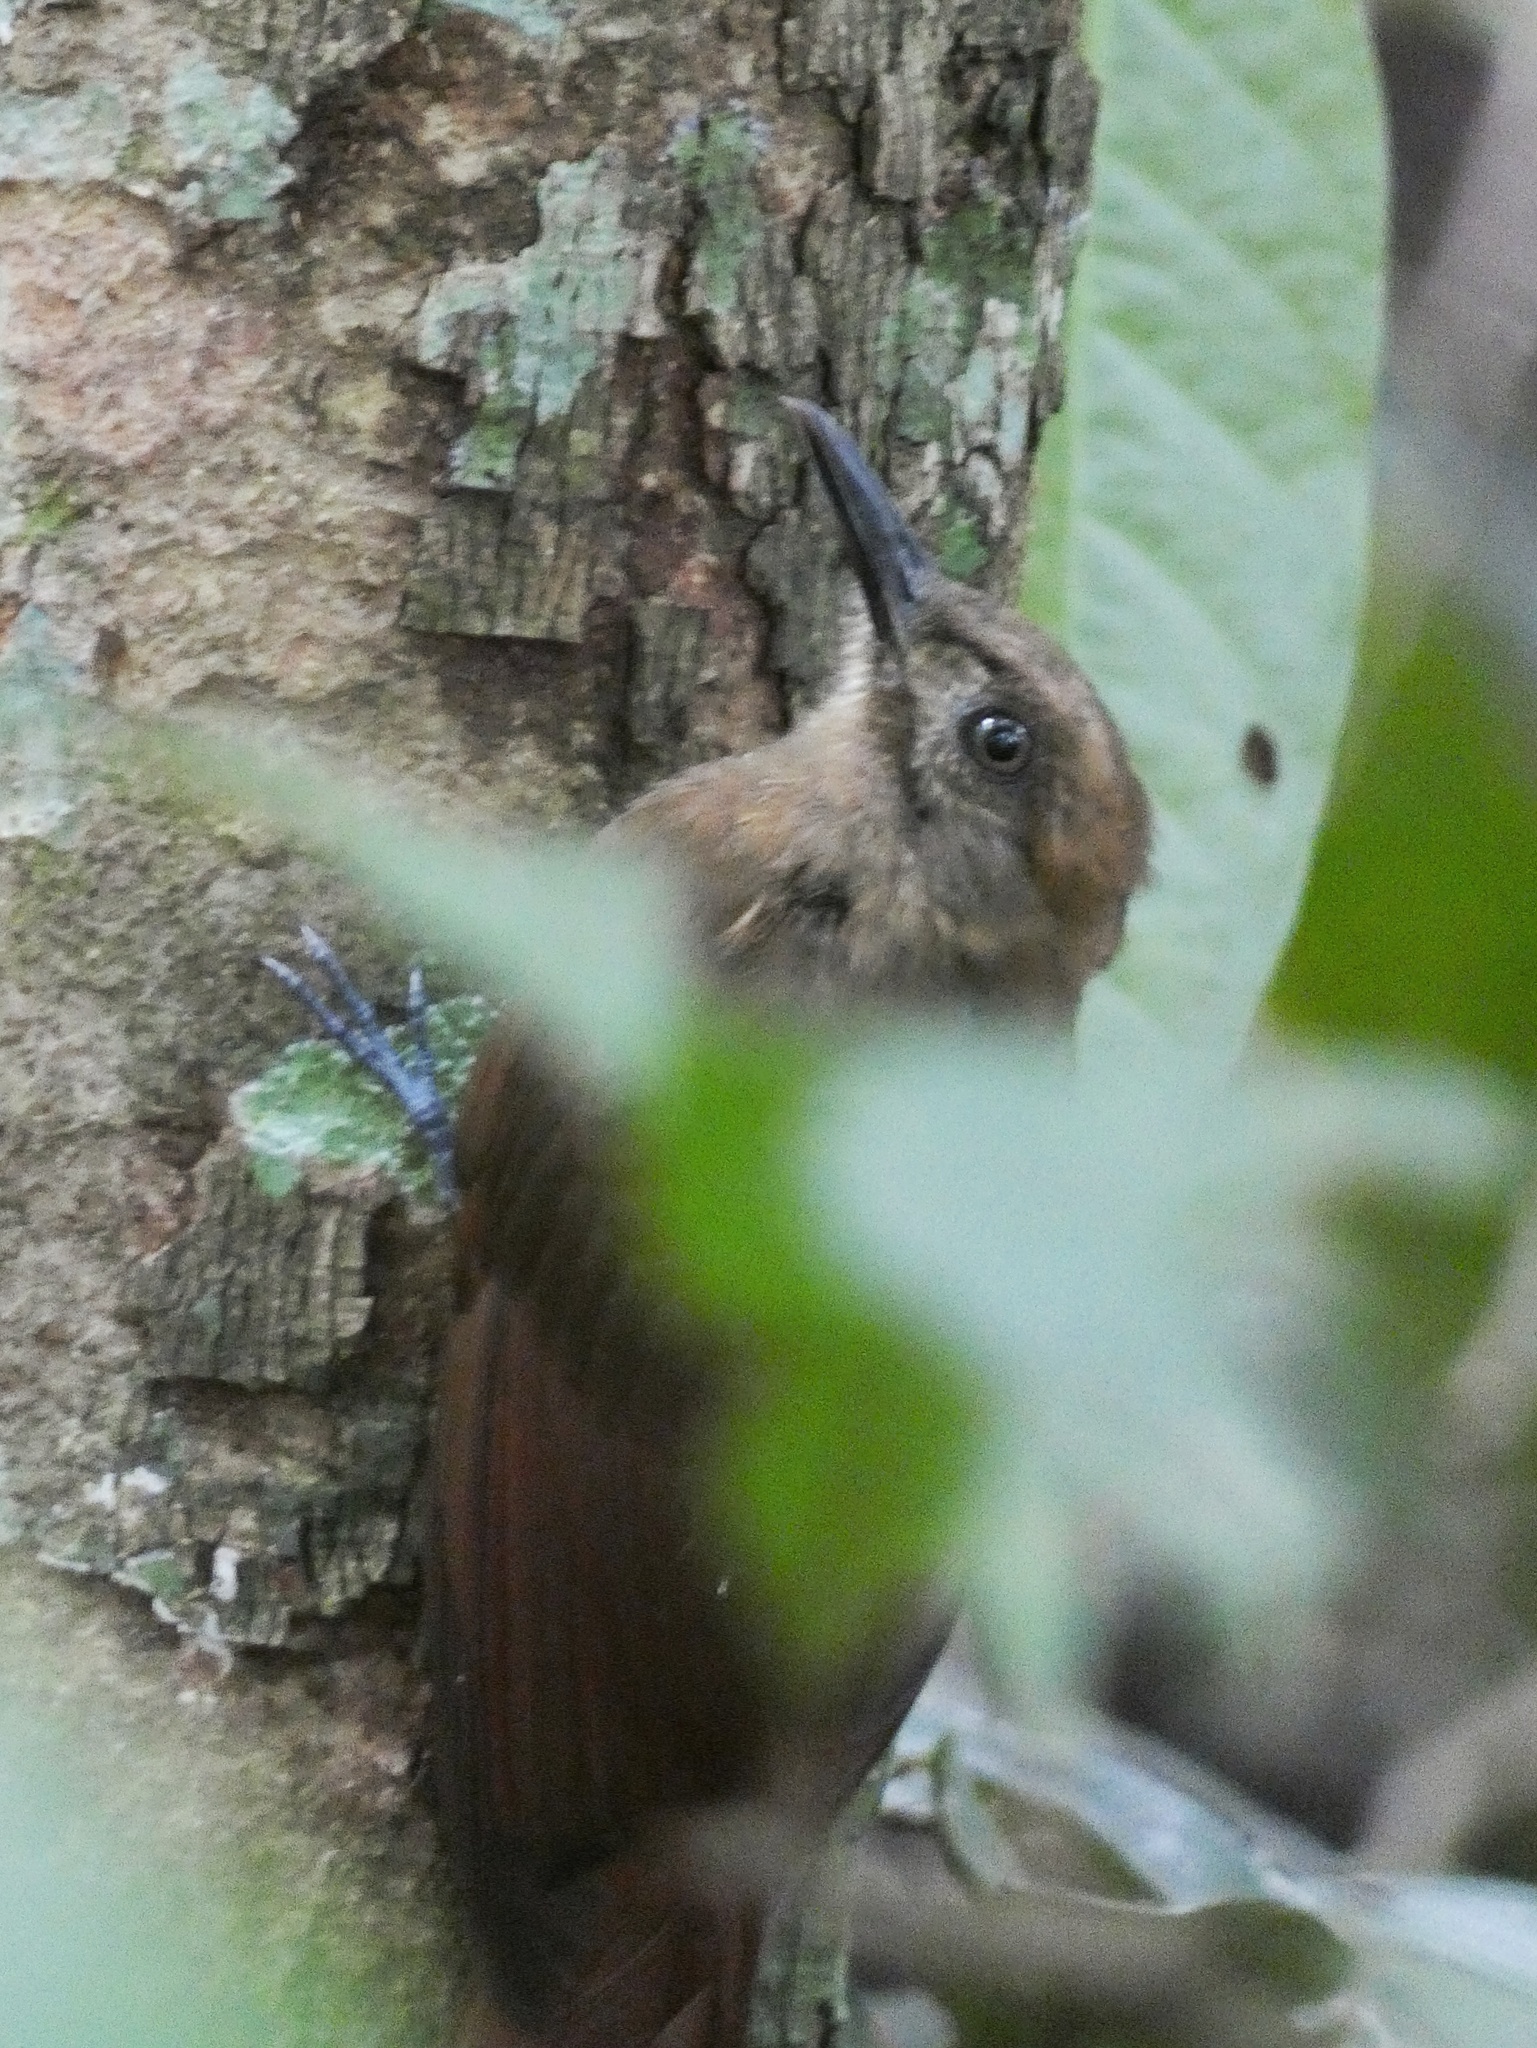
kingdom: Animalia
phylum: Chordata
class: Aves
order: Passeriformes
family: Furnariidae
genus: Dendrocincla
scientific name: Dendrocincla fuliginosa
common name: Plain-brown woodcreeper
